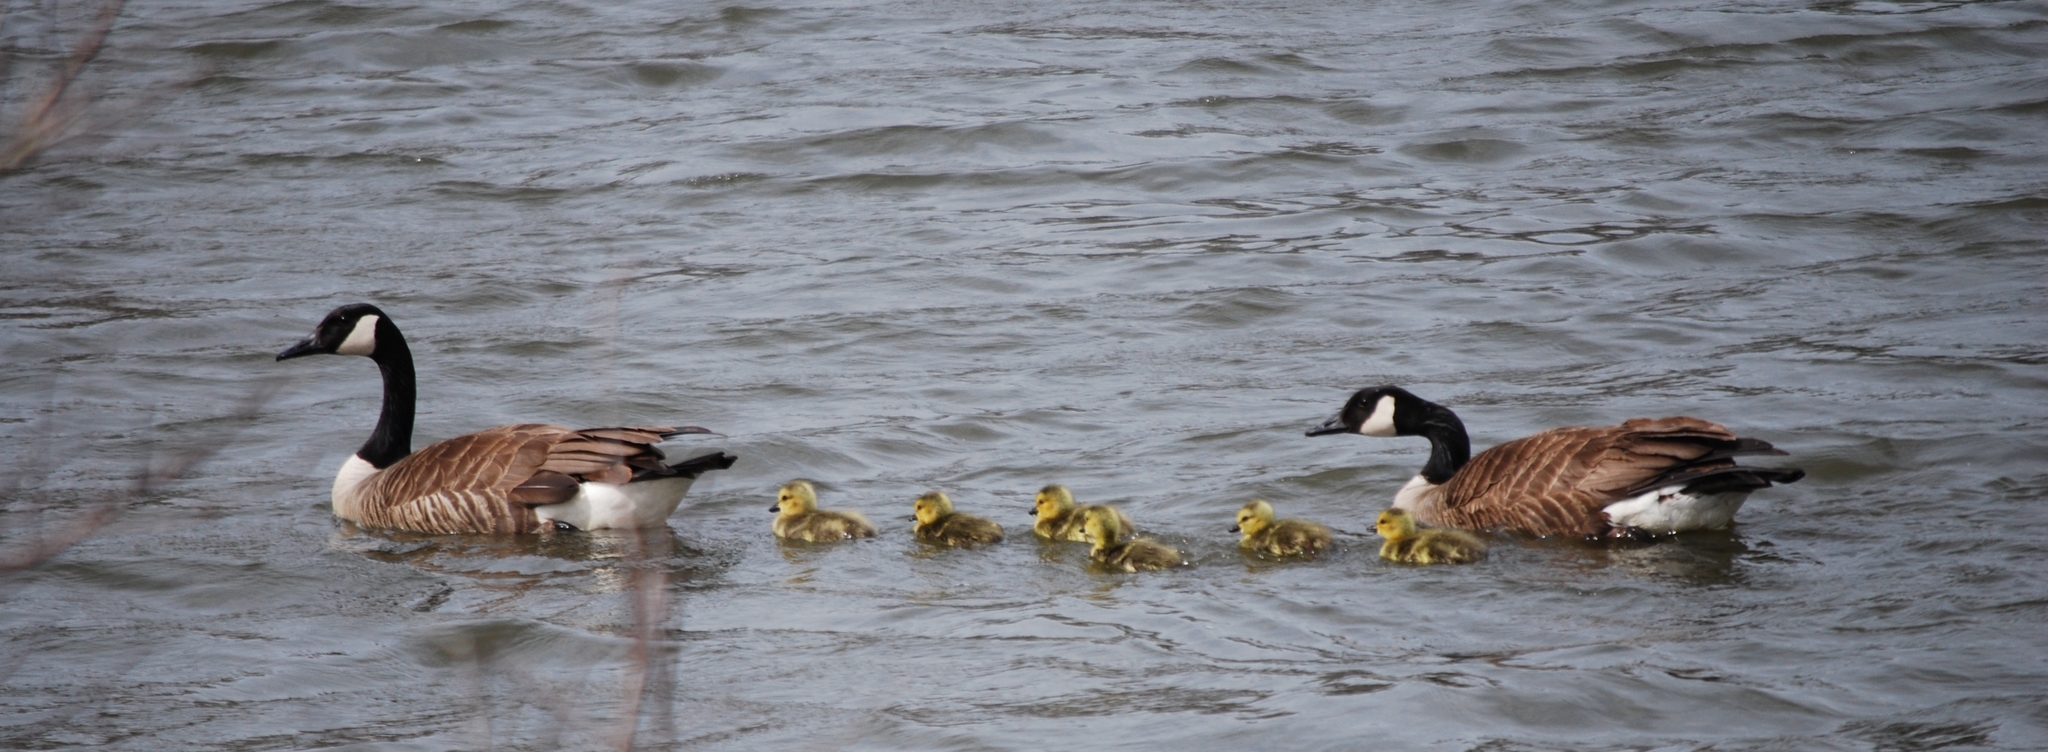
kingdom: Animalia
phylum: Chordata
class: Aves
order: Anseriformes
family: Anatidae
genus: Branta
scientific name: Branta canadensis
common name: Canada goose
